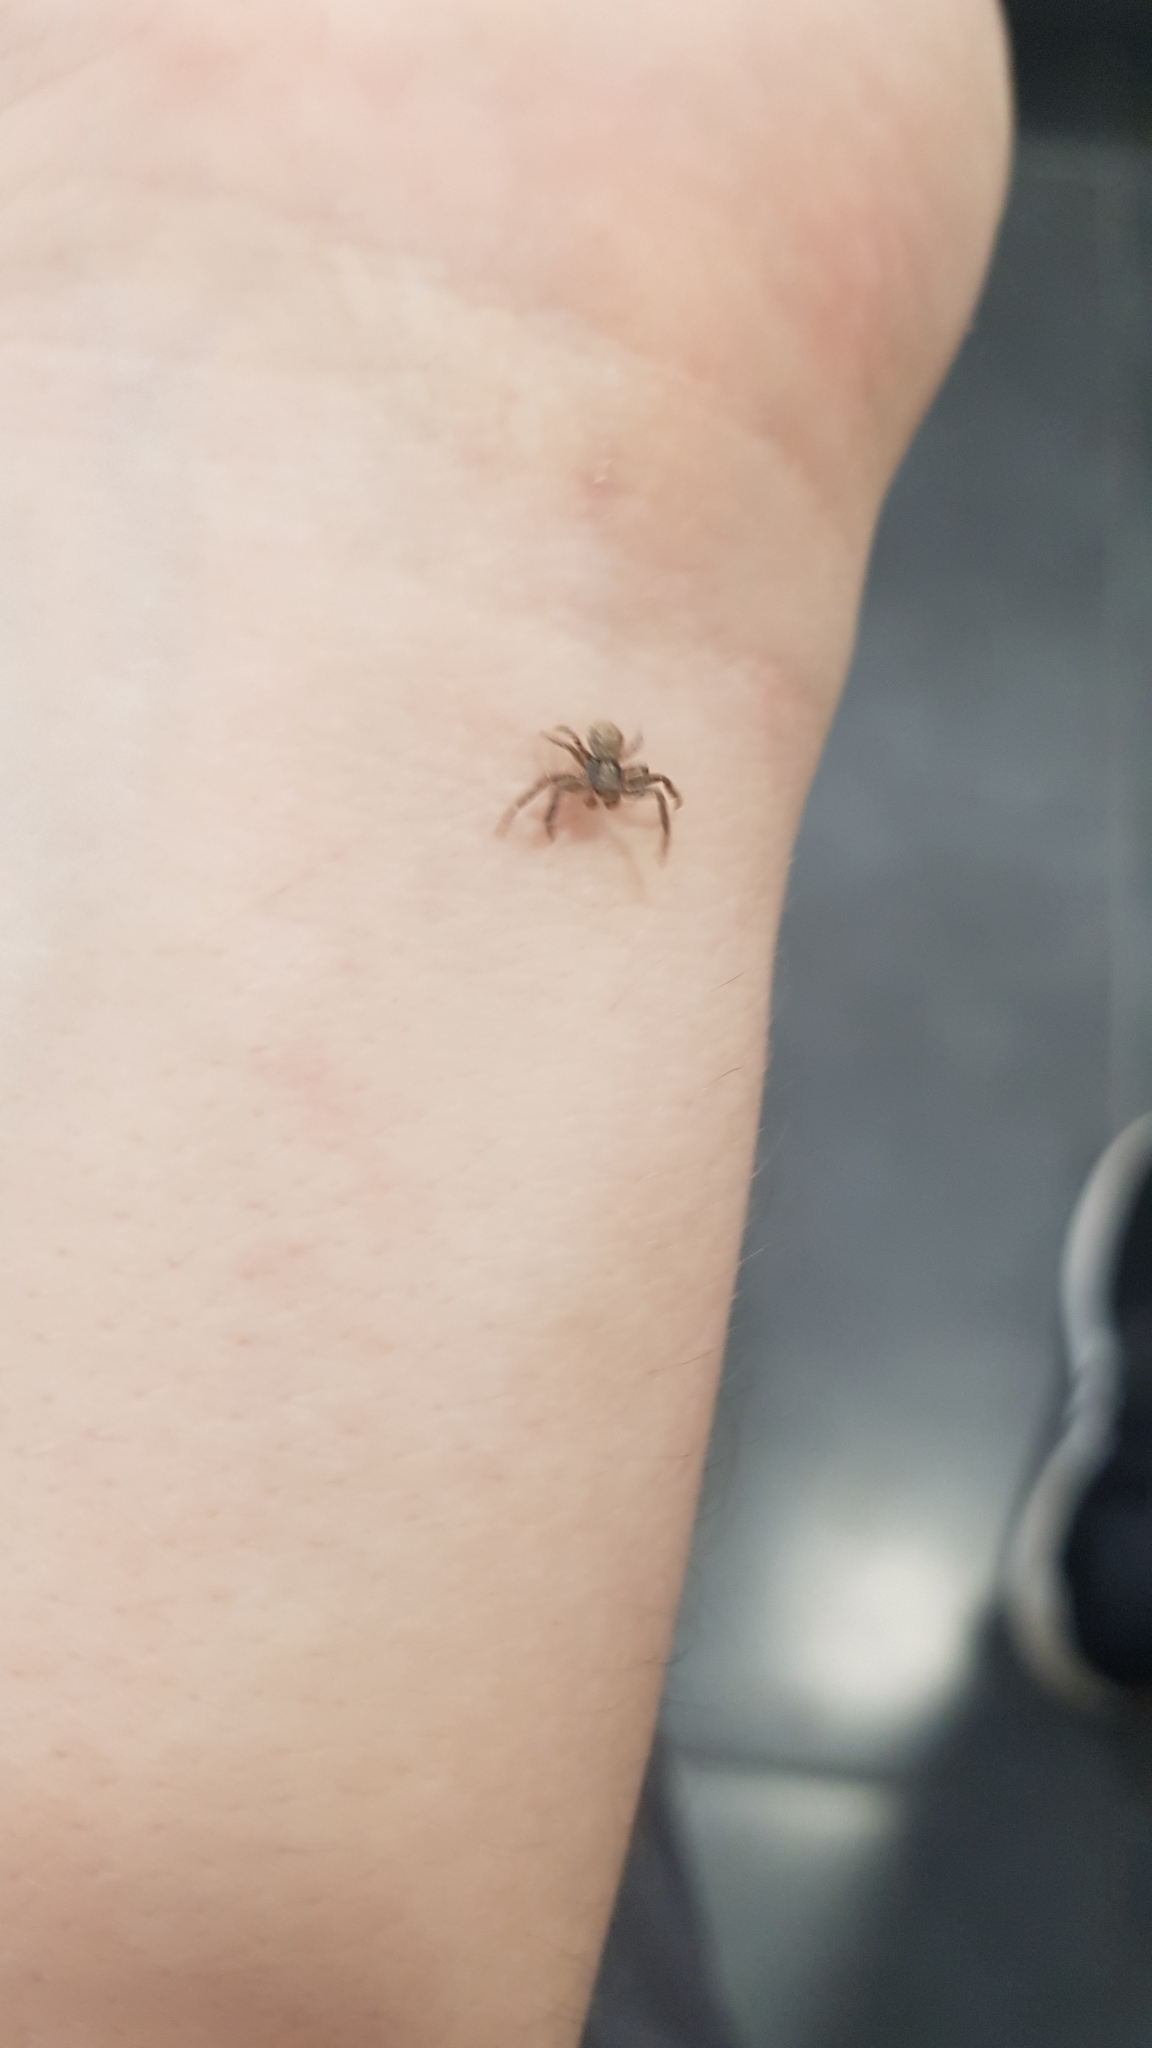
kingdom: Animalia
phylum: Arthropoda
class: Arachnida
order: Araneae
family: Thomisidae
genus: Xysticus
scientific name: Xysticus
